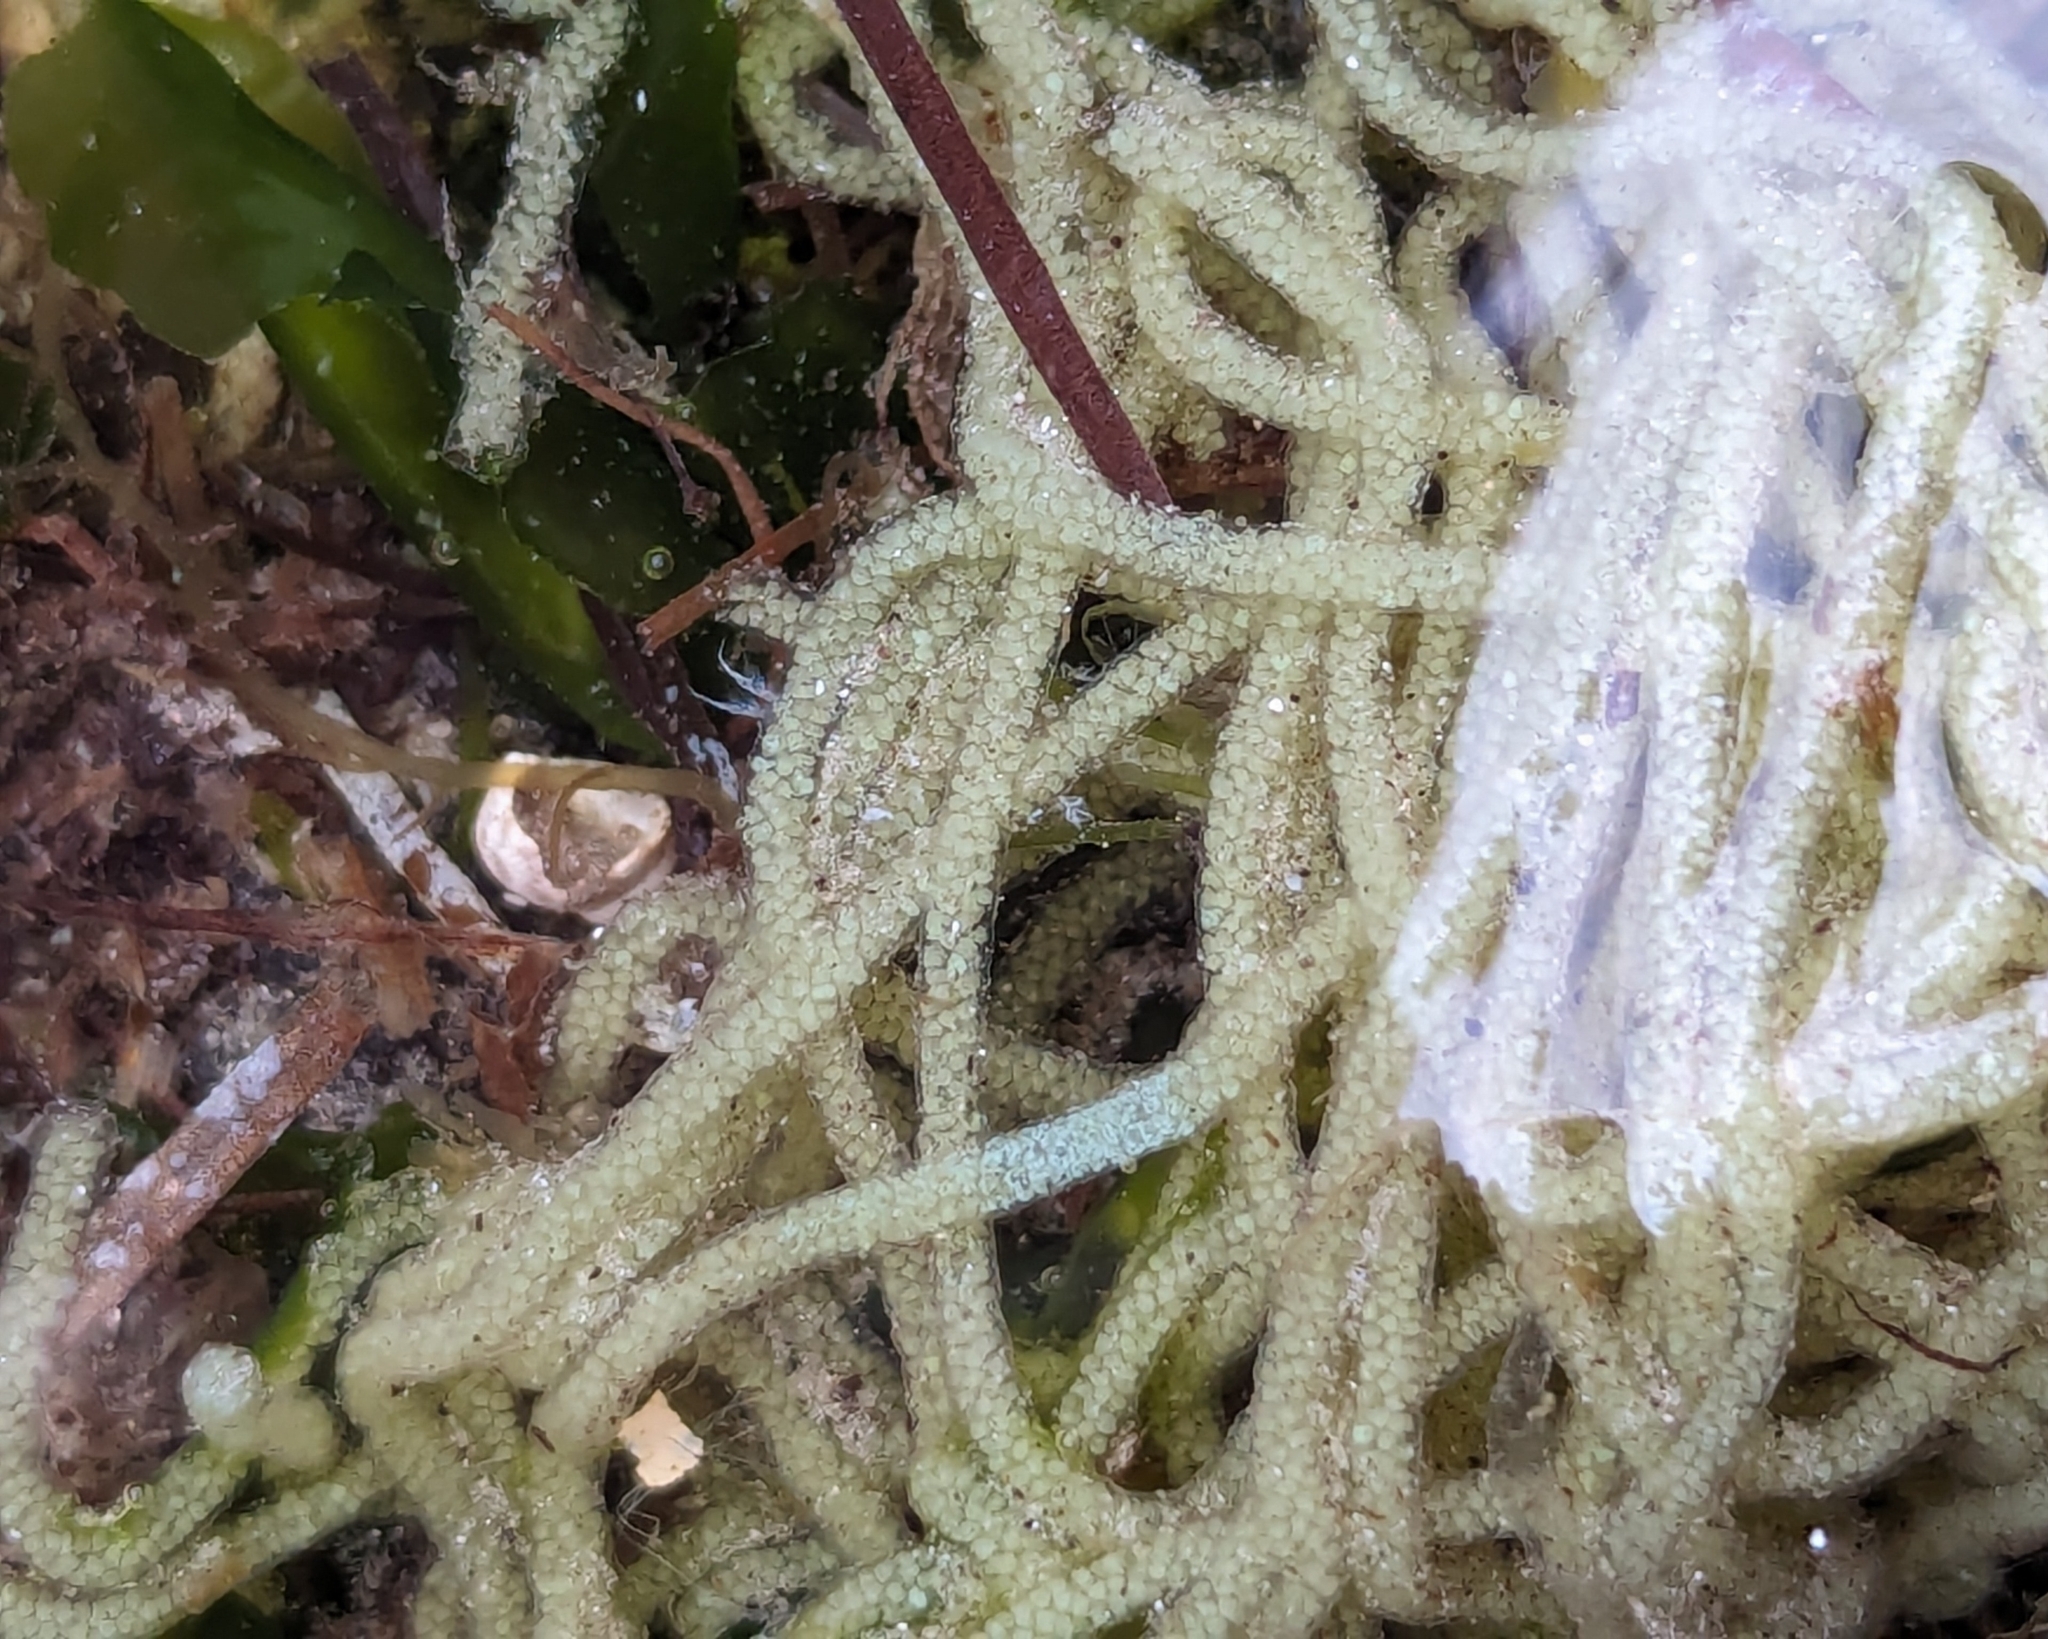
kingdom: Animalia
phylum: Mollusca
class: Gastropoda
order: Aplysiida
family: Aplysiidae
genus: Bursatella
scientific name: Bursatella leachii
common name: Shaggy sea hare
